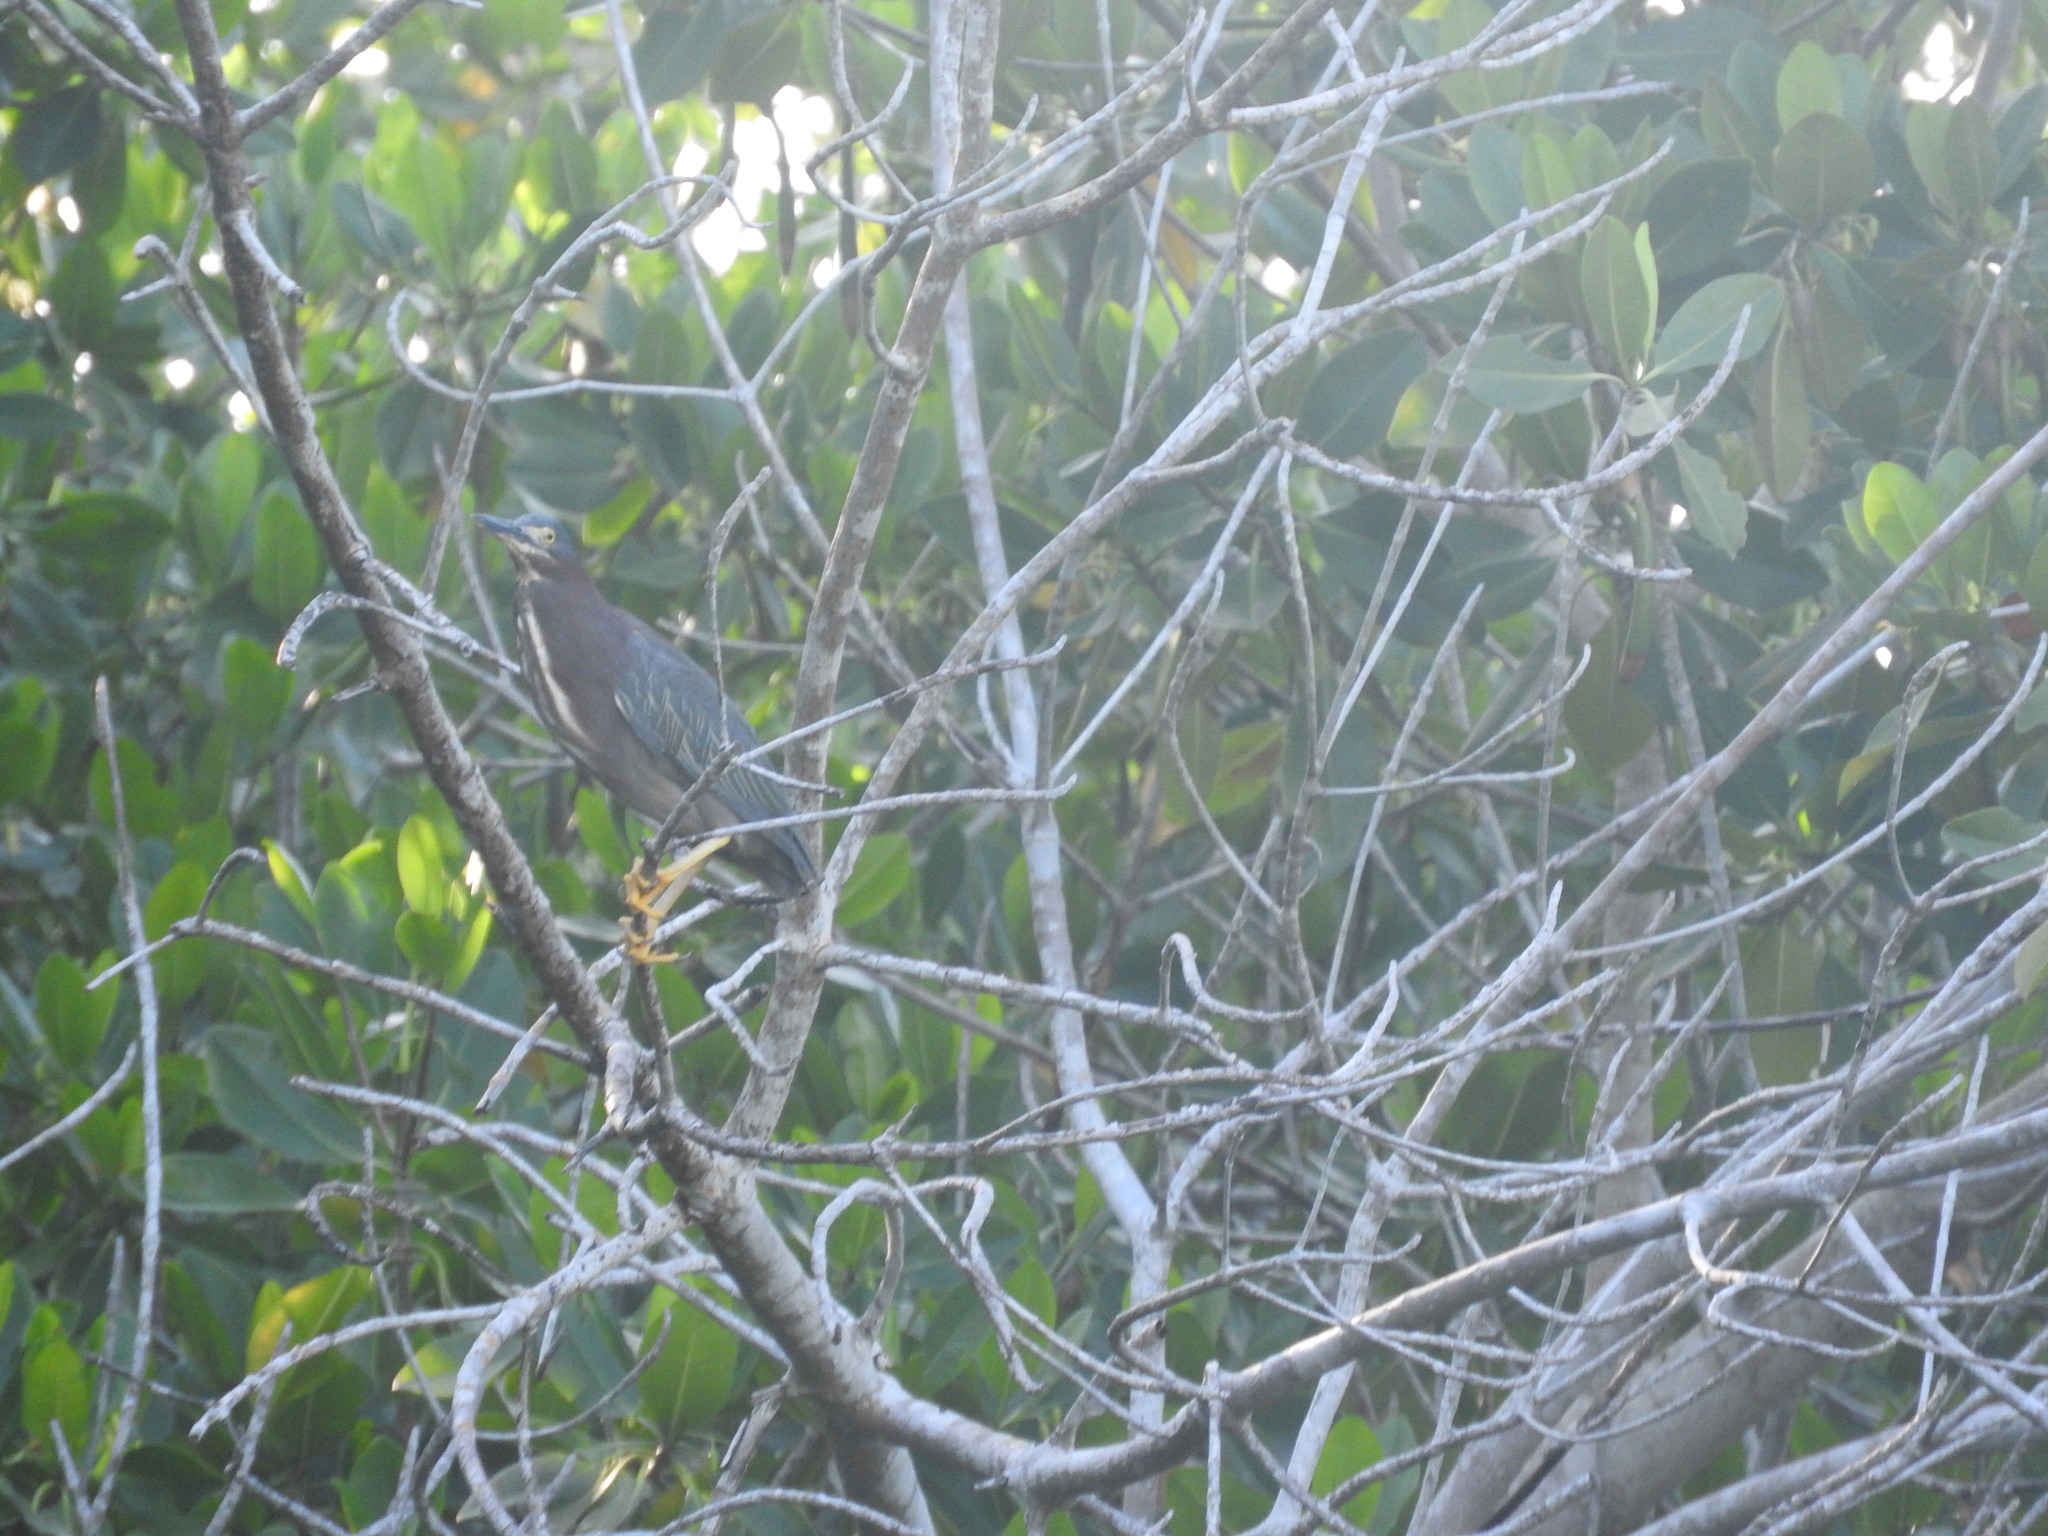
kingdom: Animalia
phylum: Chordata
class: Aves
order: Pelecaniformes
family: Ardeidae
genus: Butorides
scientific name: Butorides virescens
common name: Green heron
